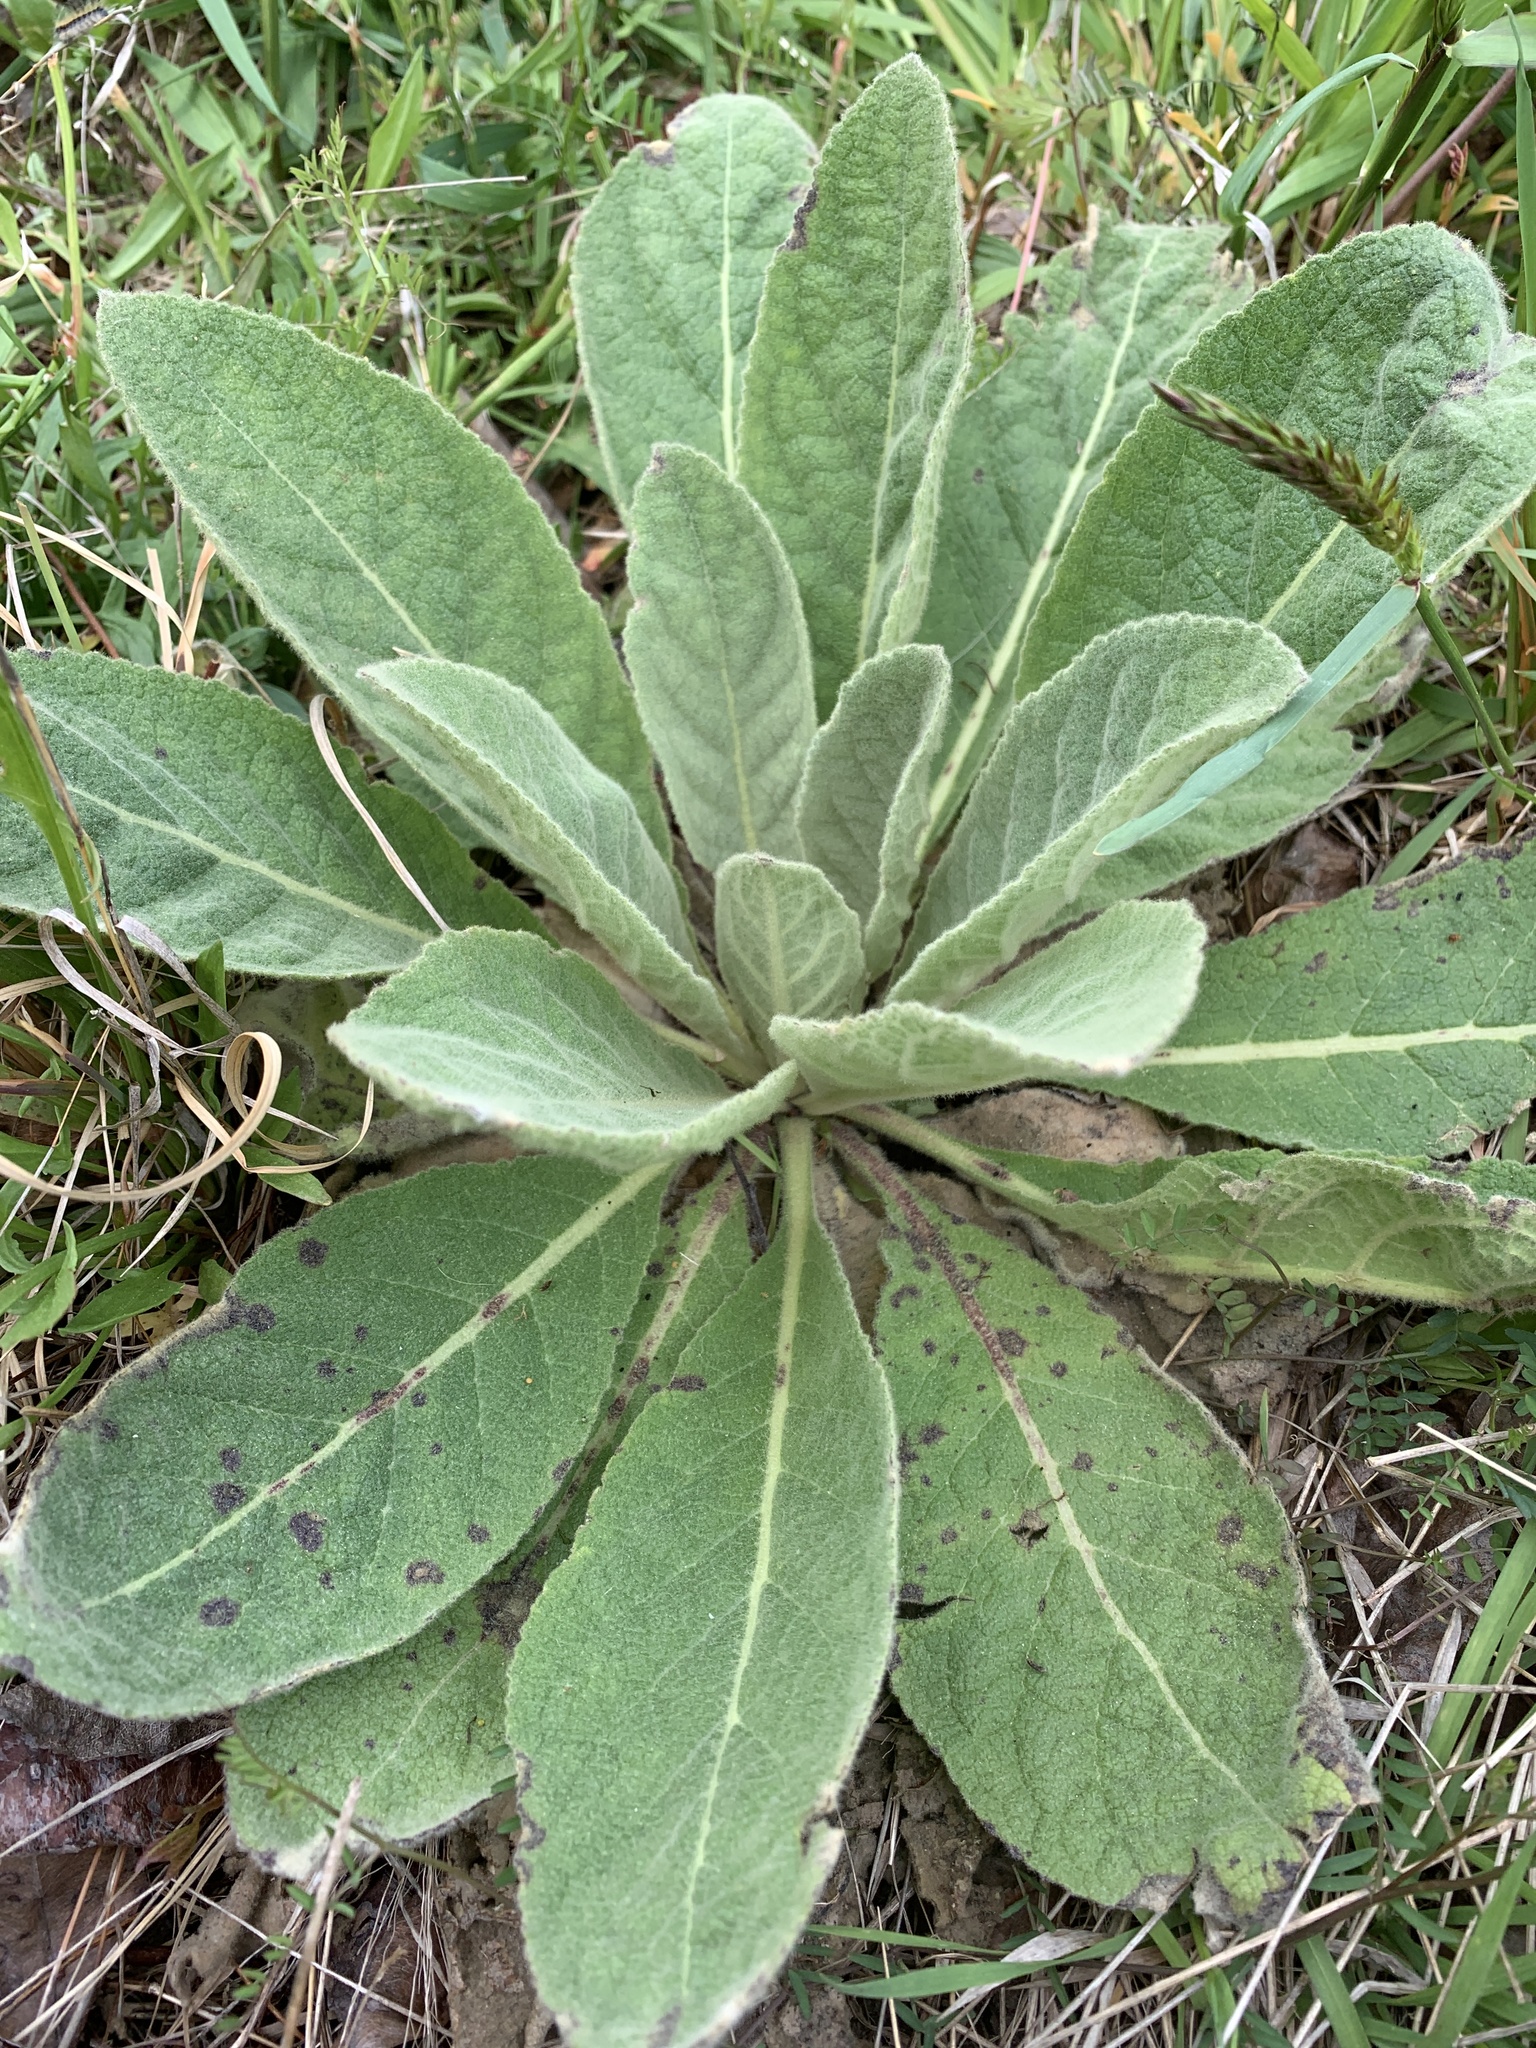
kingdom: Plantae
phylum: Tracheophyta
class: Magnoliopsida
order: Lamiales
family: Scrophulariaceae
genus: Verbascum
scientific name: Verbascum thapsus
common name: Common mullein
